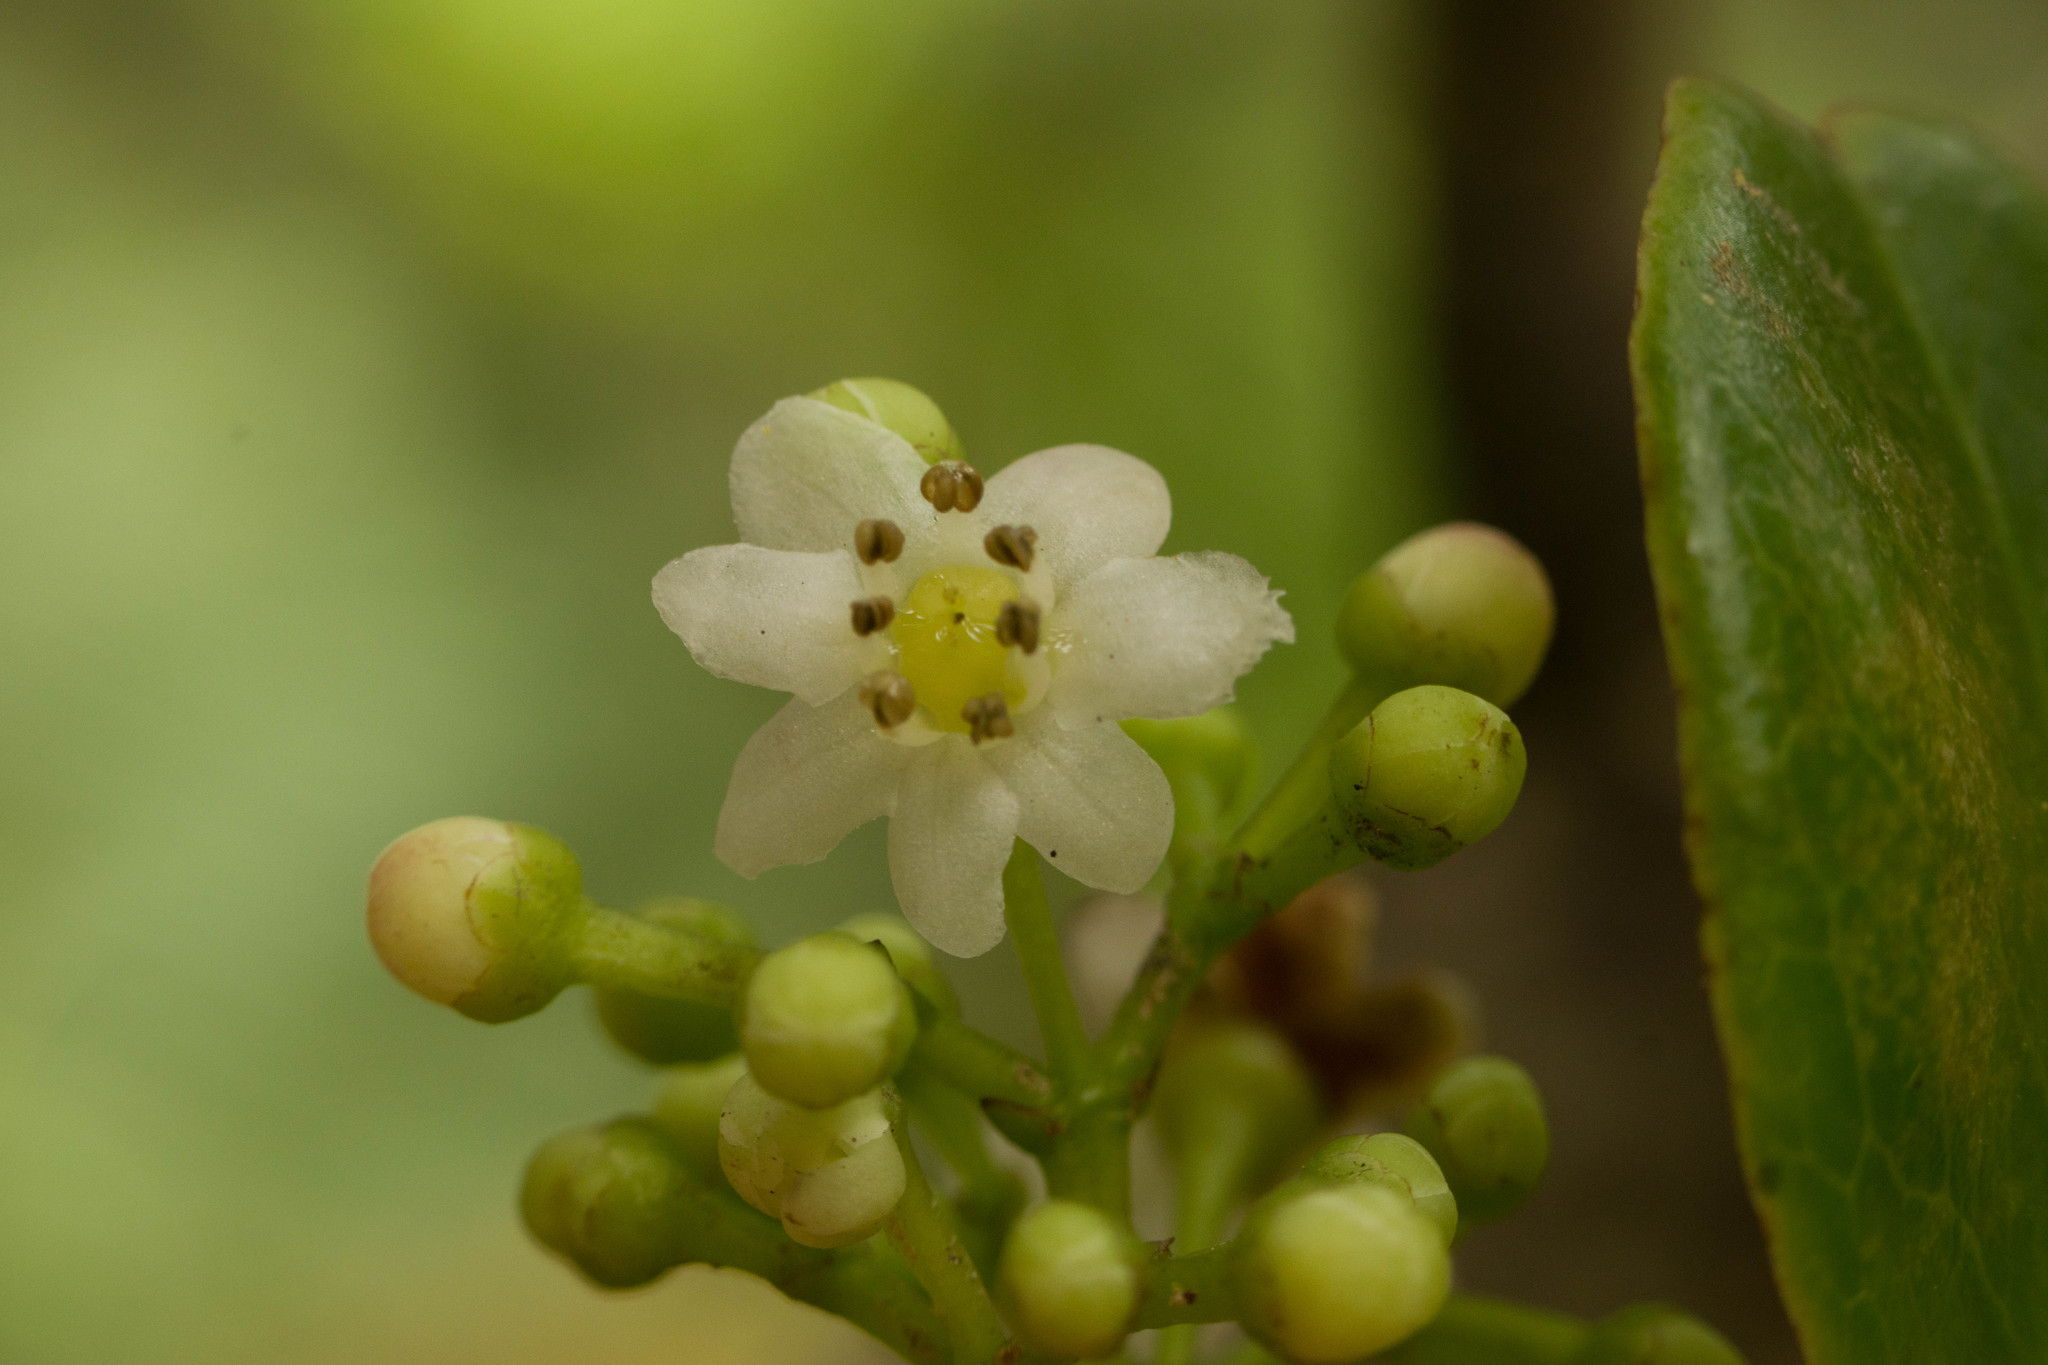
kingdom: Plantae
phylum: Tracheophyta
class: Magnoliopsida
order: Aquifoliales
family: Aquifoliaceae
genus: Ilex
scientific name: Ilex anomala
